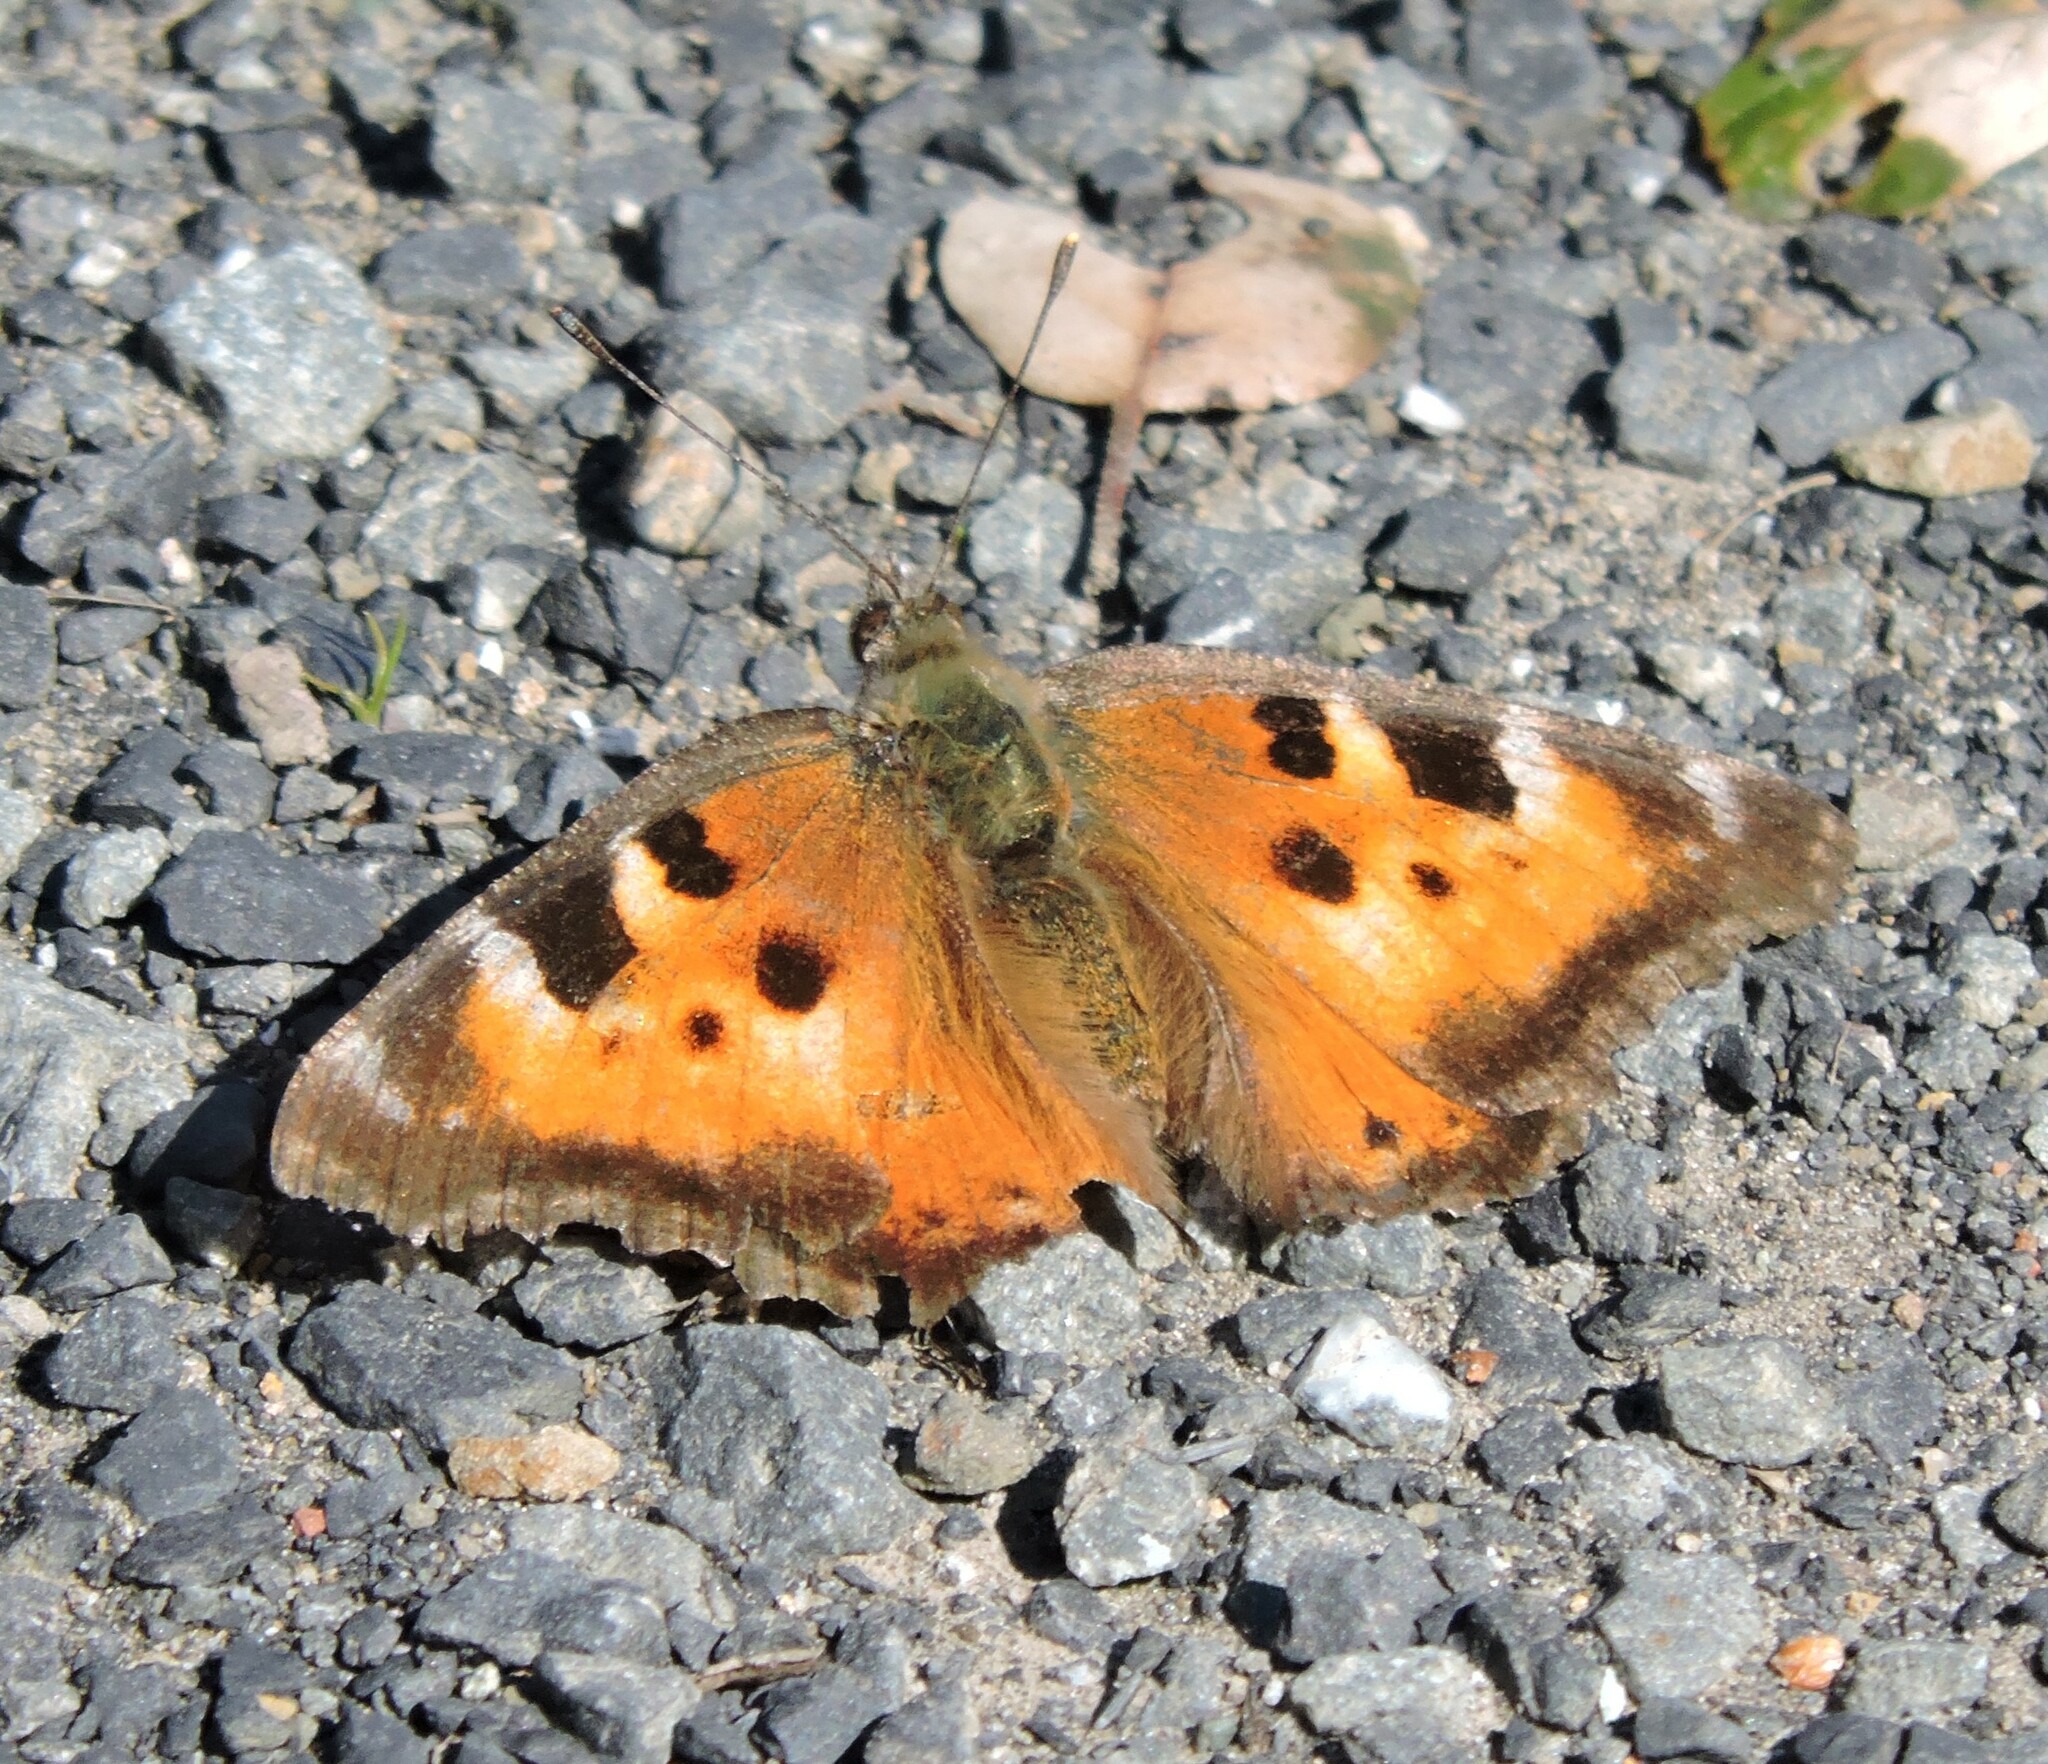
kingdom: Animalia
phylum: Arthropoda
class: Insecta
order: Lepidoptera
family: Nymphalidae
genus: Nymphalis
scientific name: Nymphalis californica
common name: California tortoiseshell
